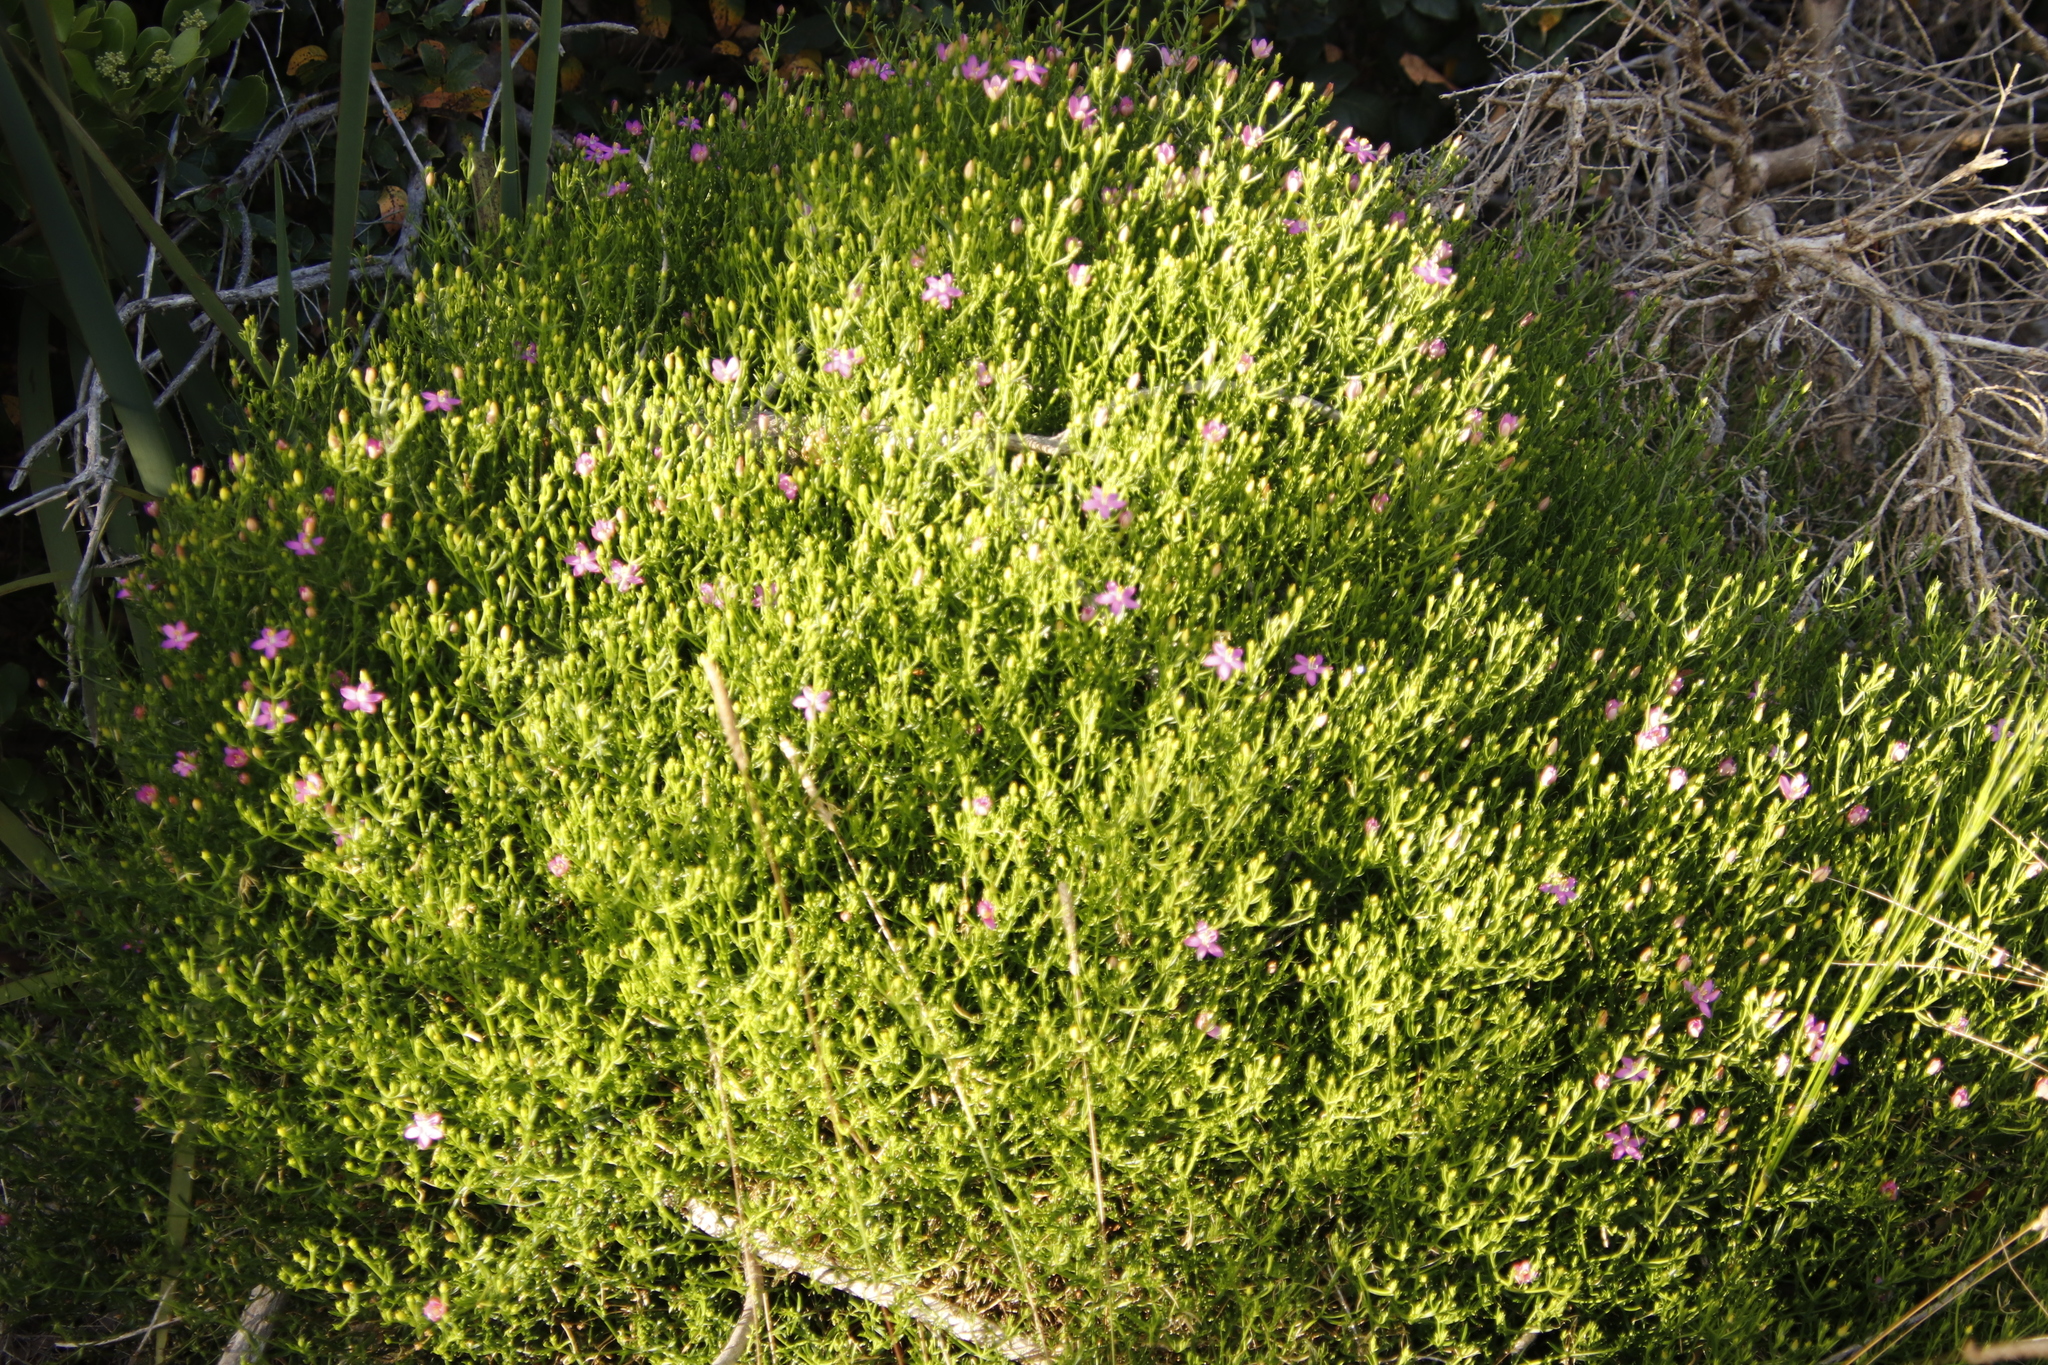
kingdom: Plantae
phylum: Tracheophyta
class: Magnoliopsida
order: Gentianales
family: Gentianaceae
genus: Chironia
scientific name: Chironia baccifera
